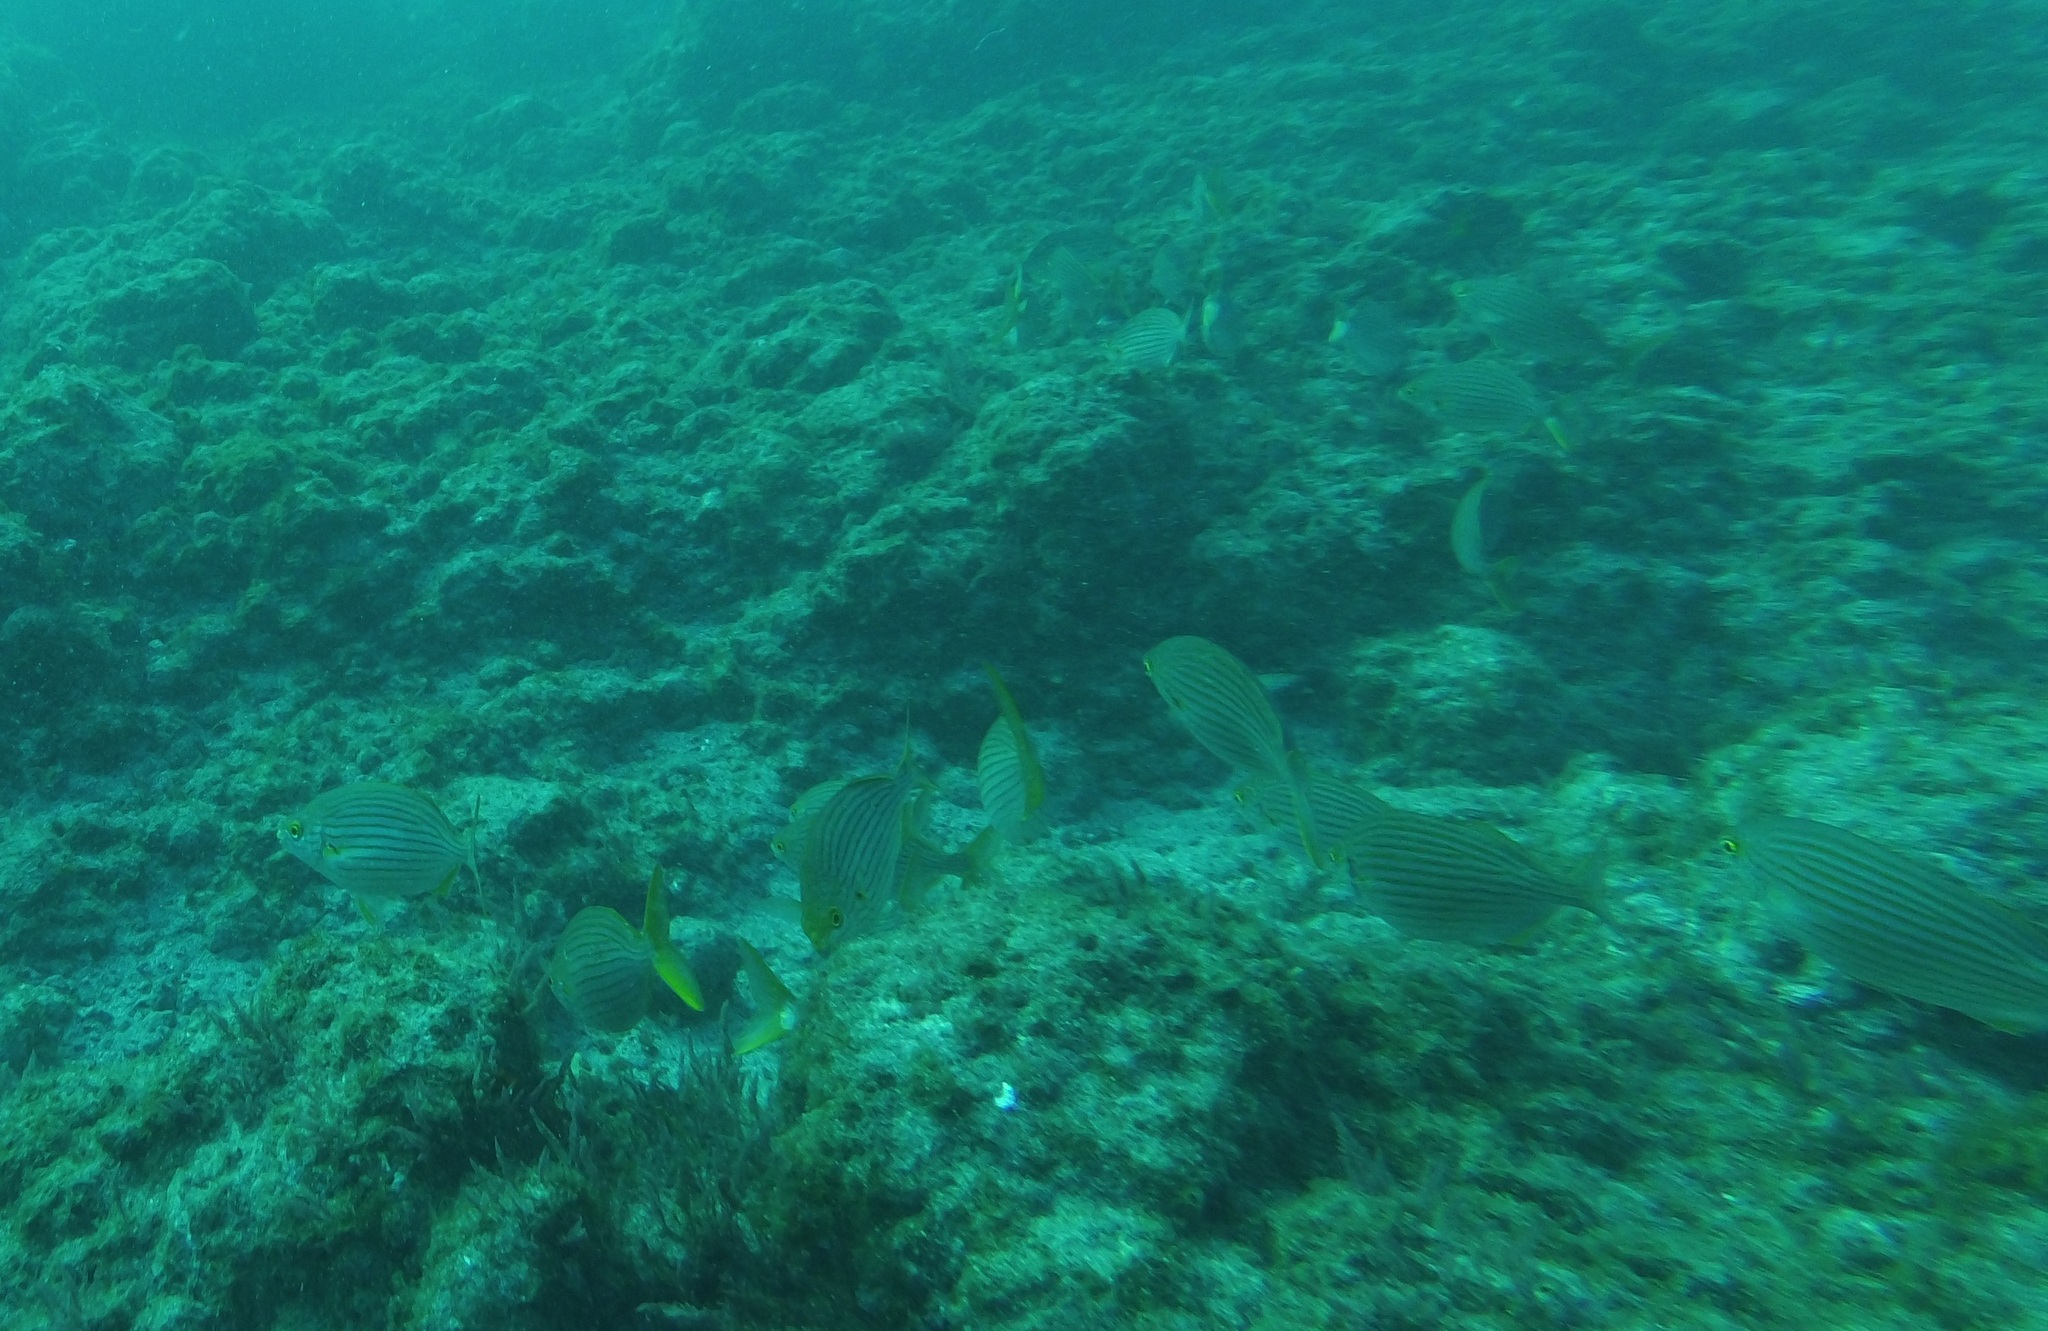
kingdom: Animalia
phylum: Chordata
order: Perciformes
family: Sparidae
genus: Sarpa
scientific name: Sarpa salpa
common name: Salema
